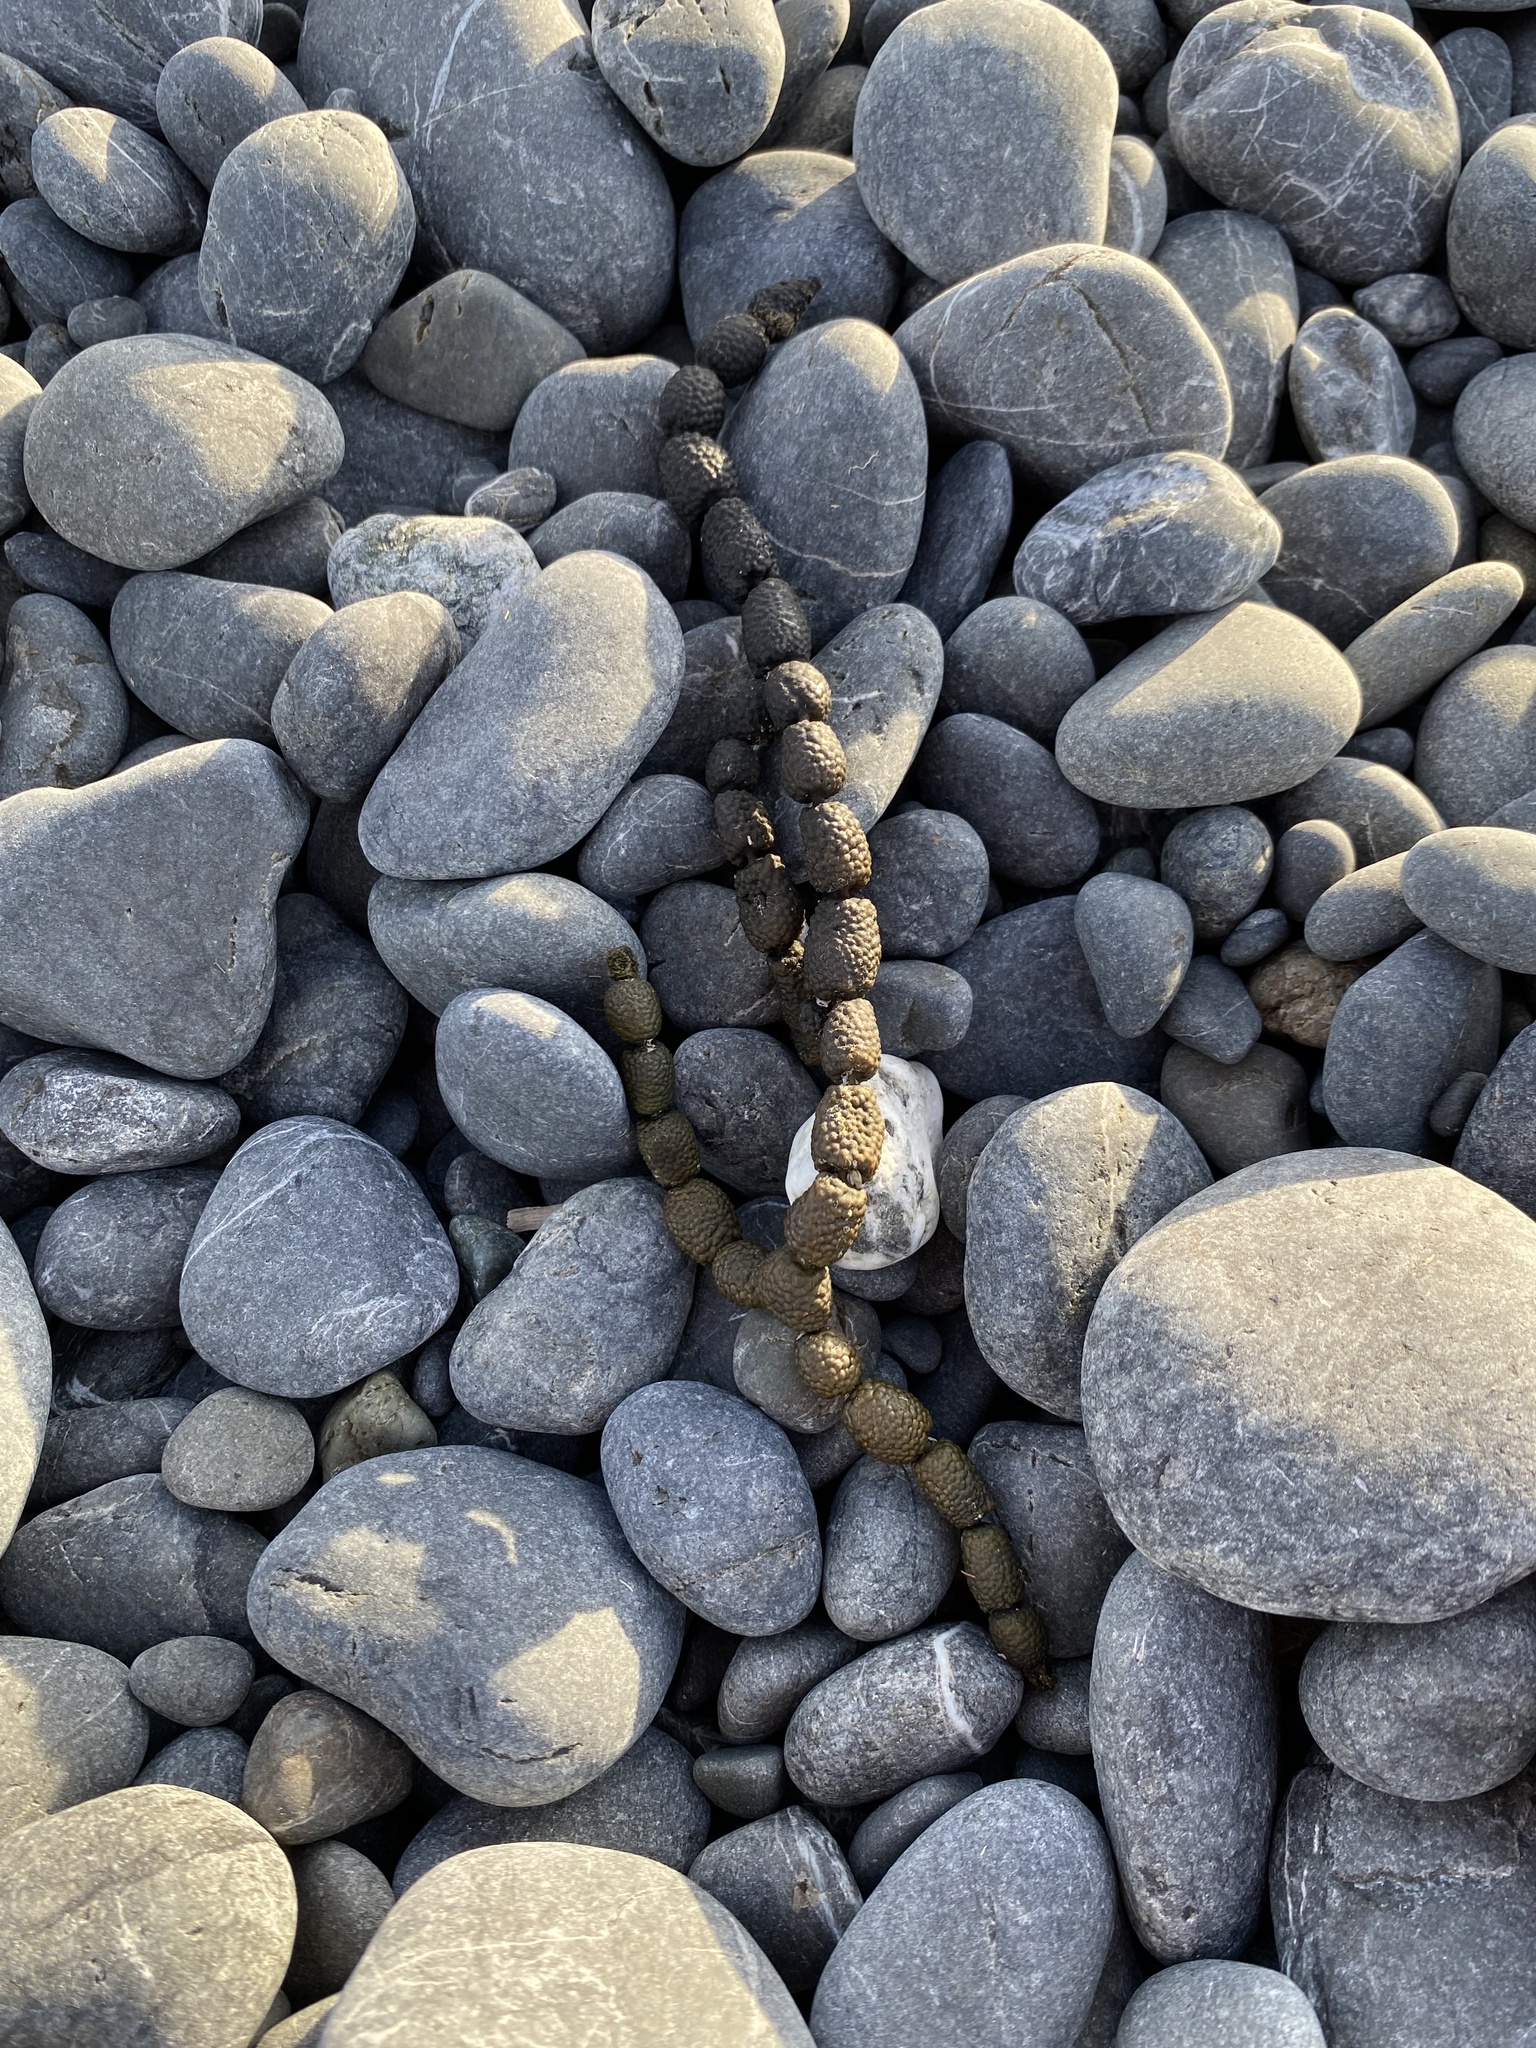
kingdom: Chromista
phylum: Ochrophyta
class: Phaeophyceae
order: Fucales
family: Hormosiraceae
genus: Hormosira
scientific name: Hormosira banksii
